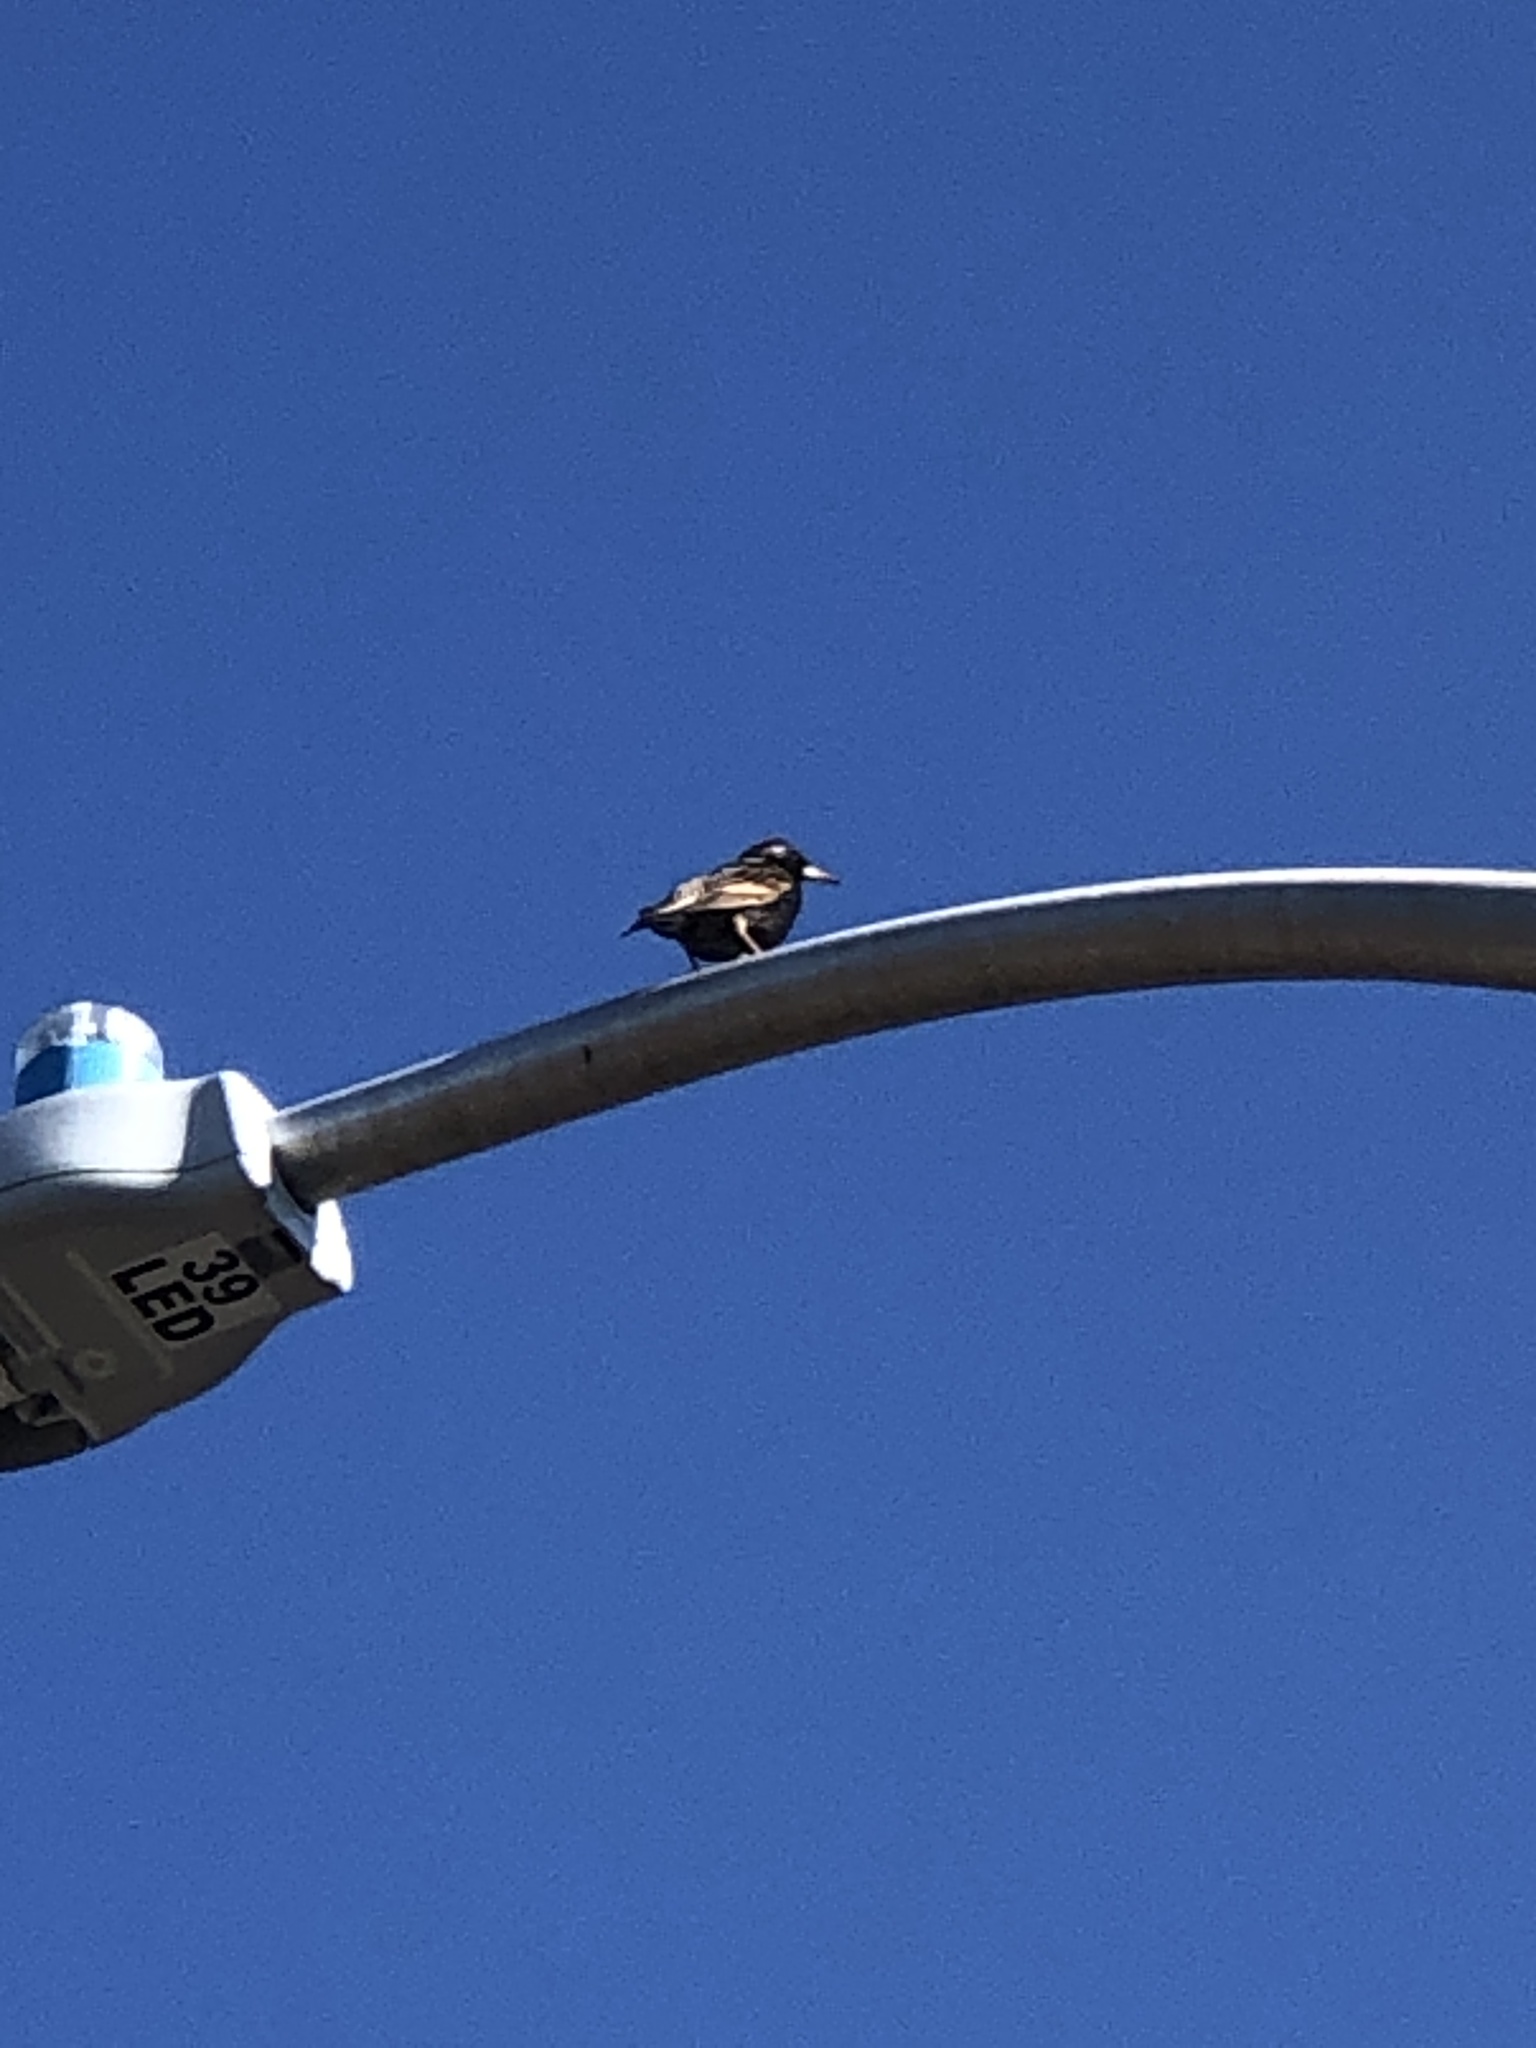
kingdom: Animalia
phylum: Chordata
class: Aves
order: Passeriformes
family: Sturnidae
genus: Sturnus
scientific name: Sturnus vulgaris
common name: Common starling
